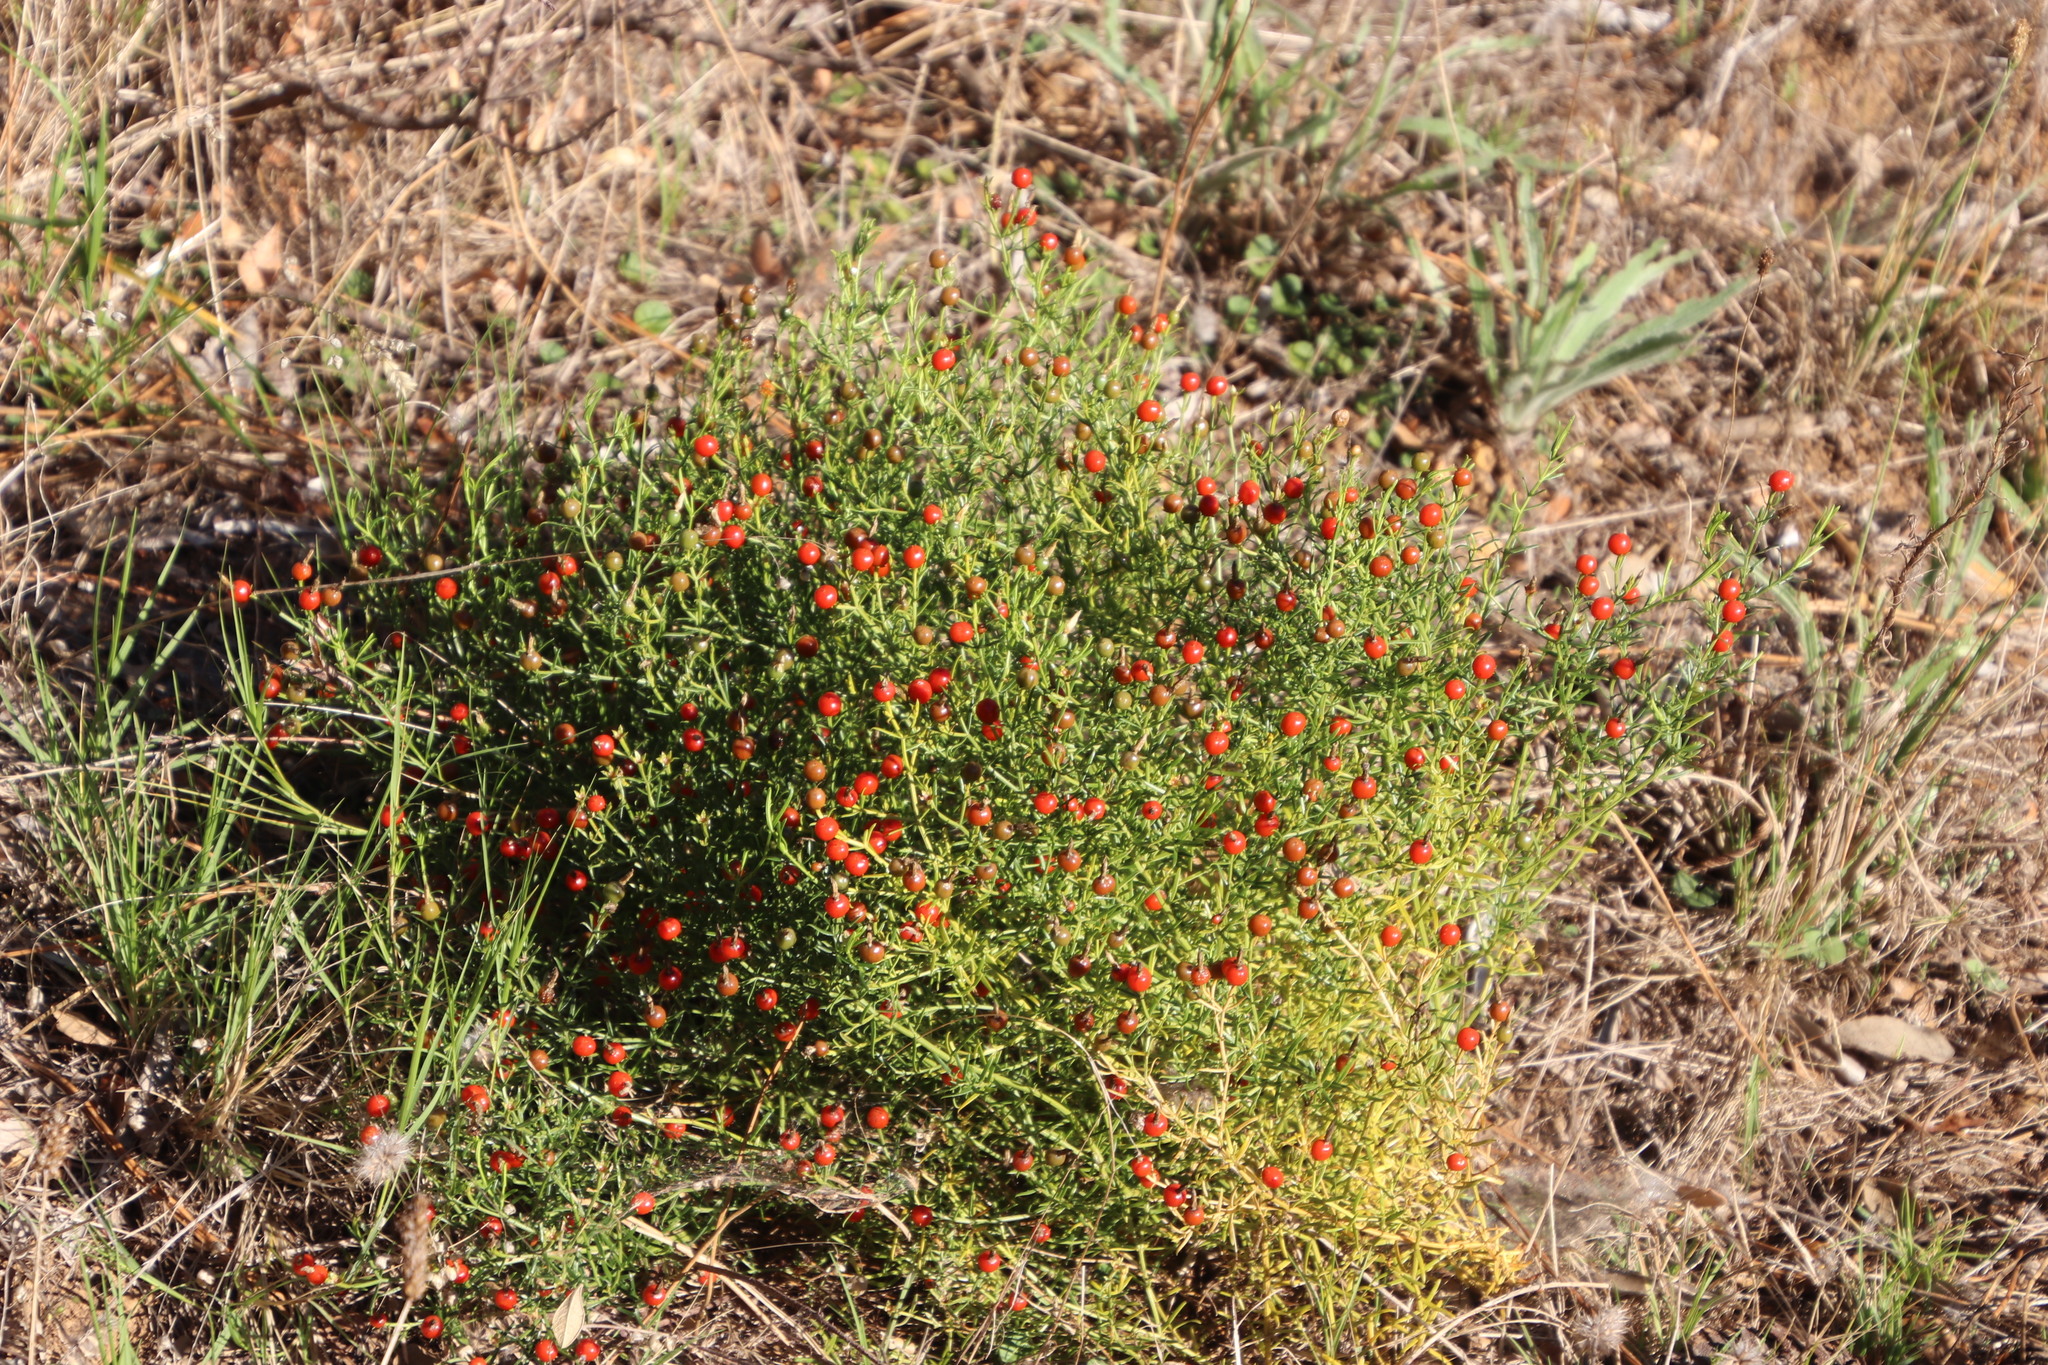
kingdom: Plantae
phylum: Tracheophyta
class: Magnoliopsida
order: Gentianales
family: Gentianaceae
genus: Chironia
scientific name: Chironia baccifera
